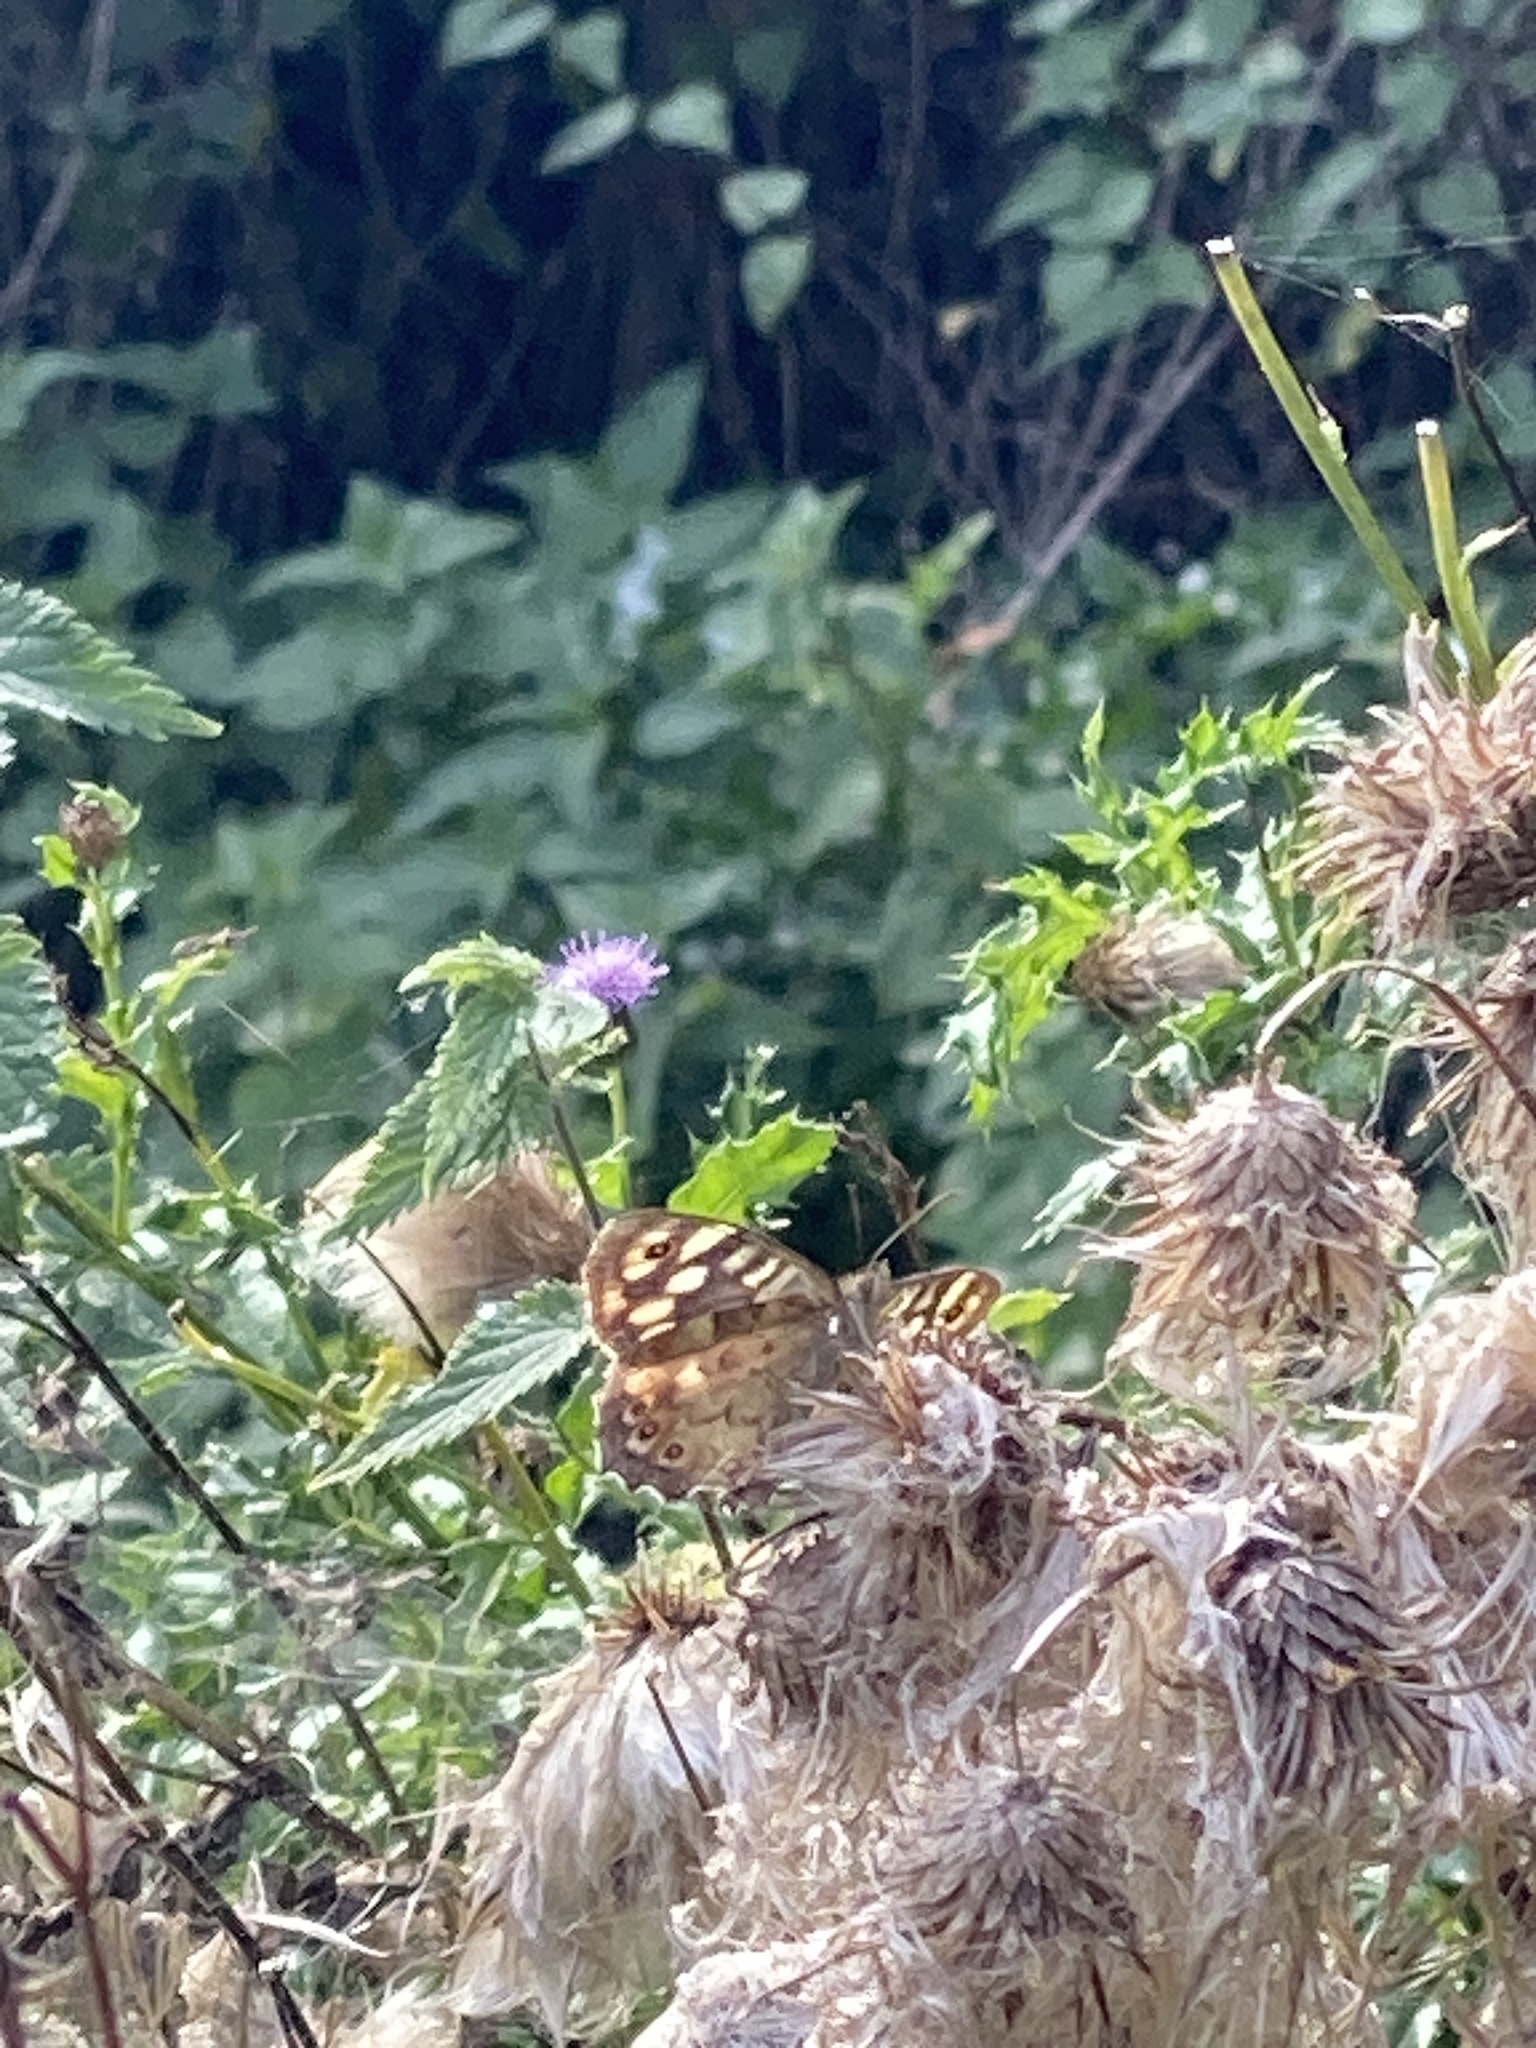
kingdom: Animalia
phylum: Arthropoda
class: Insecta
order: Lepidoptera
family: Nymphalidae
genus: Pararge
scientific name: Pararge aegeria
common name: Speckled wood
